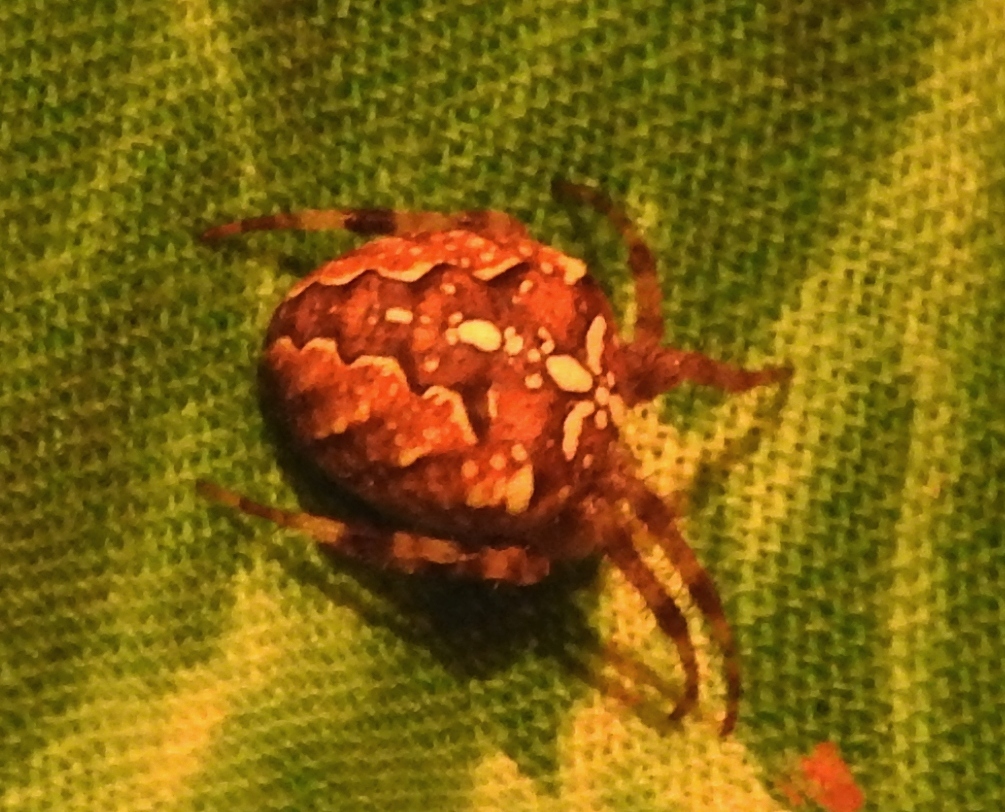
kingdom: Animalia
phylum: Arthropoda
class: Arachnida
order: Araneae
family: Araneidae
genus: Araneus
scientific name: Araneus diadematus
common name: Cross orbweaver
